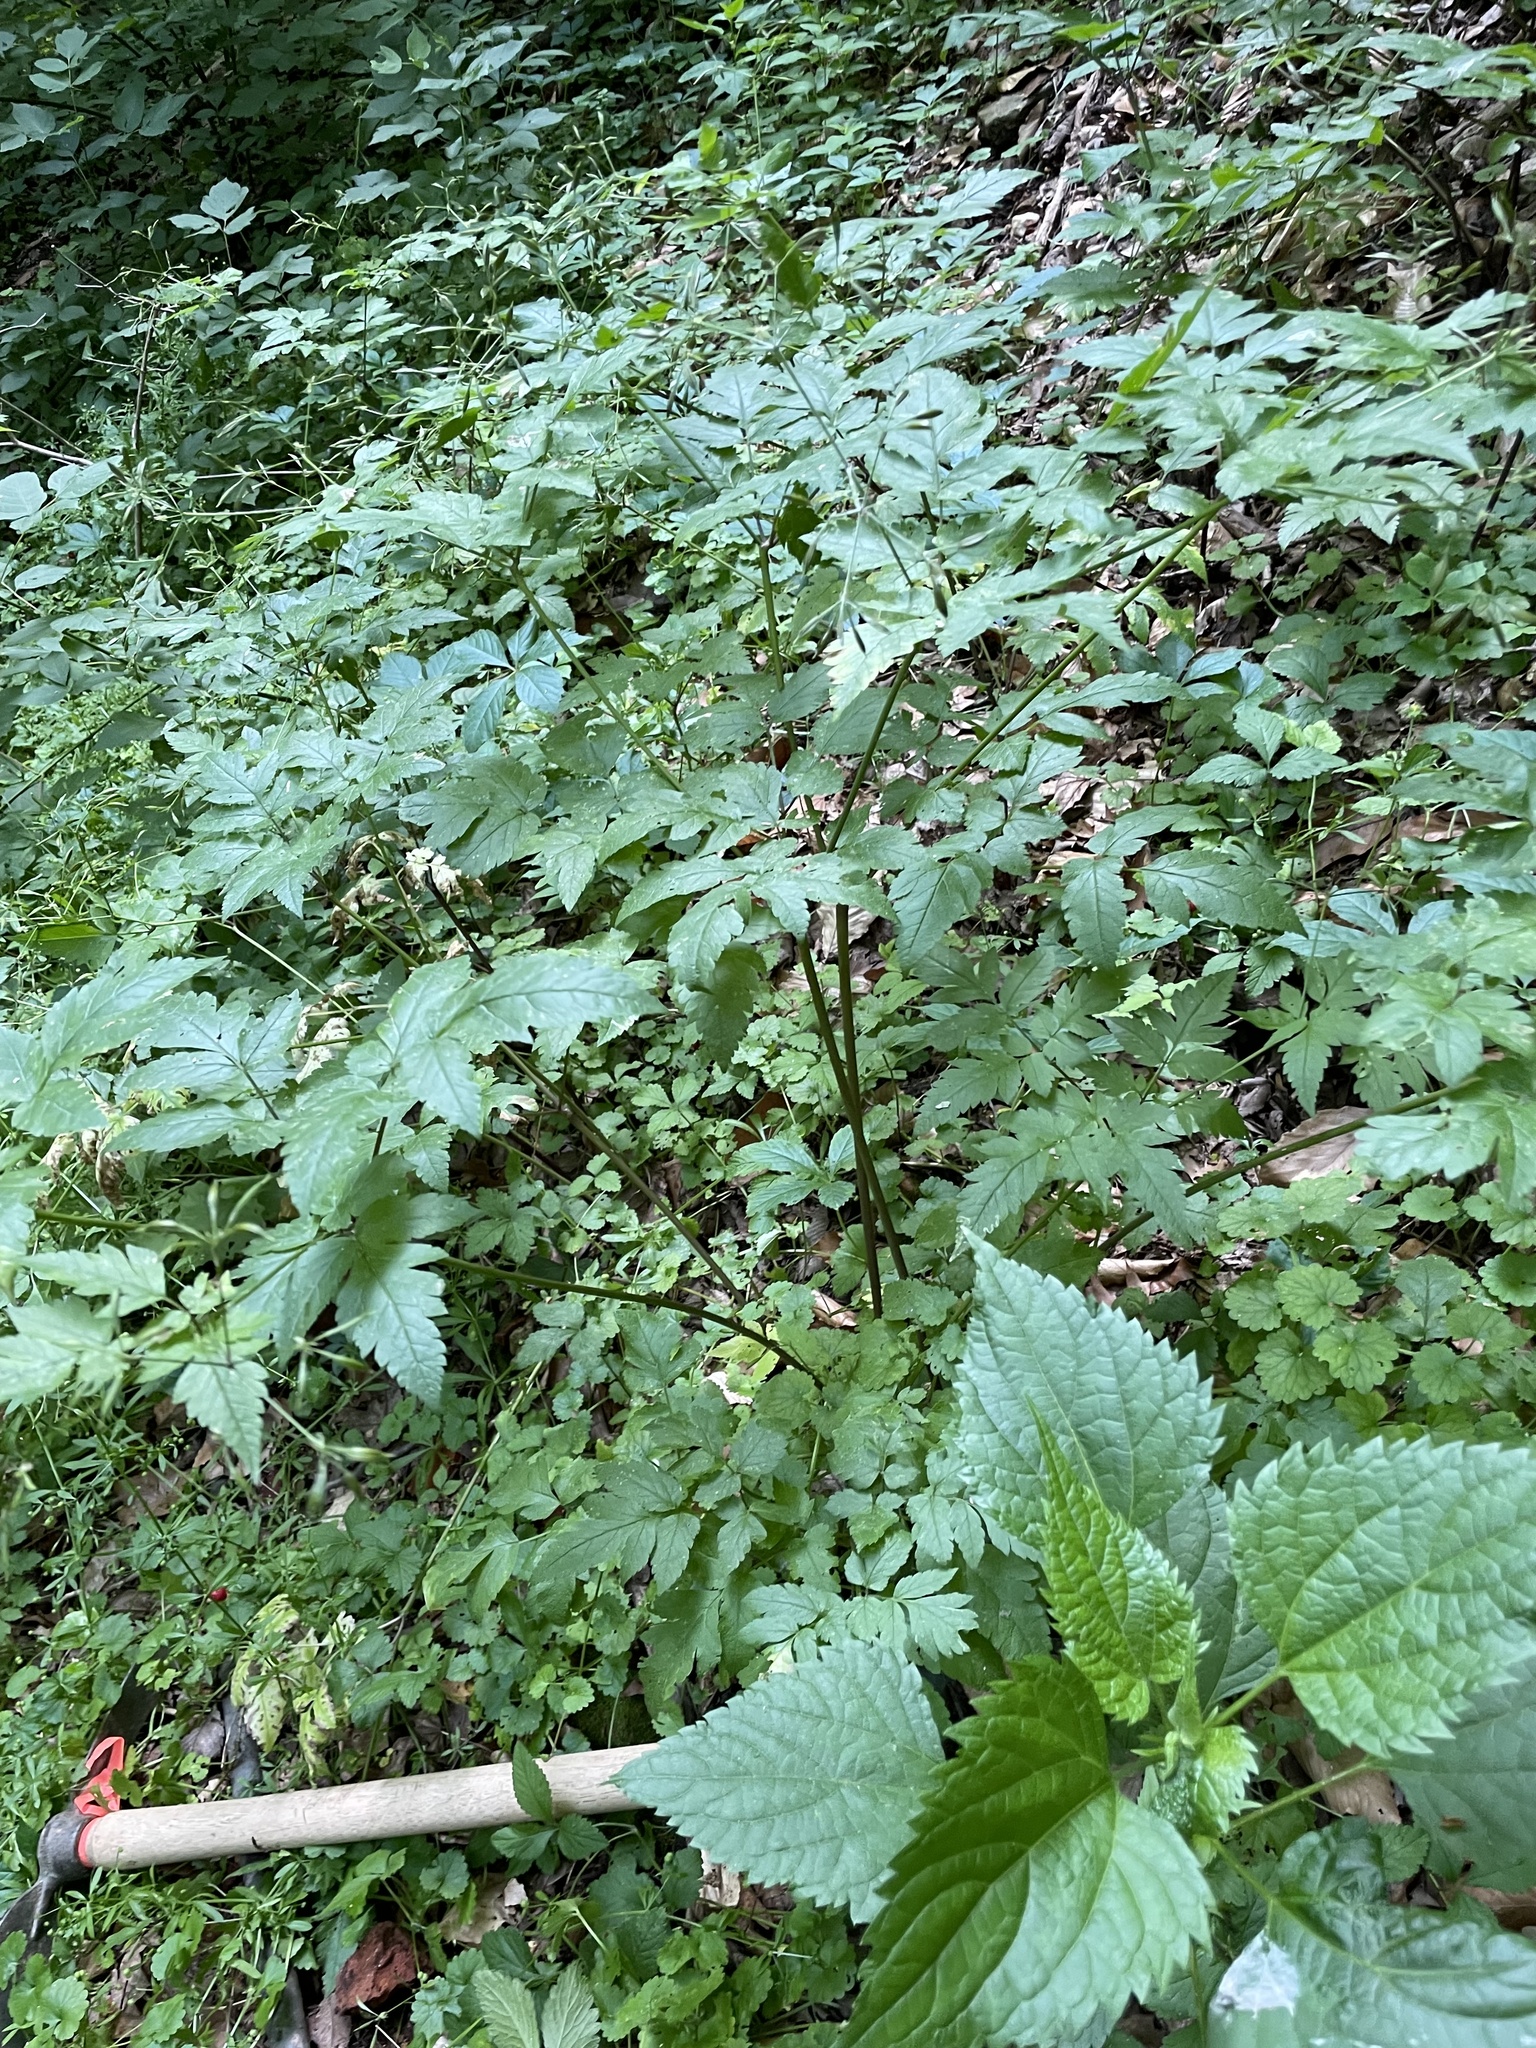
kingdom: Plantae
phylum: Tracheophyta
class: Magnoliopsida
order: Apiales
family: Apiaceae
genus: Osmorhiza
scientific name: Osmorhiza longistylis
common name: Smooth sweet cicely
